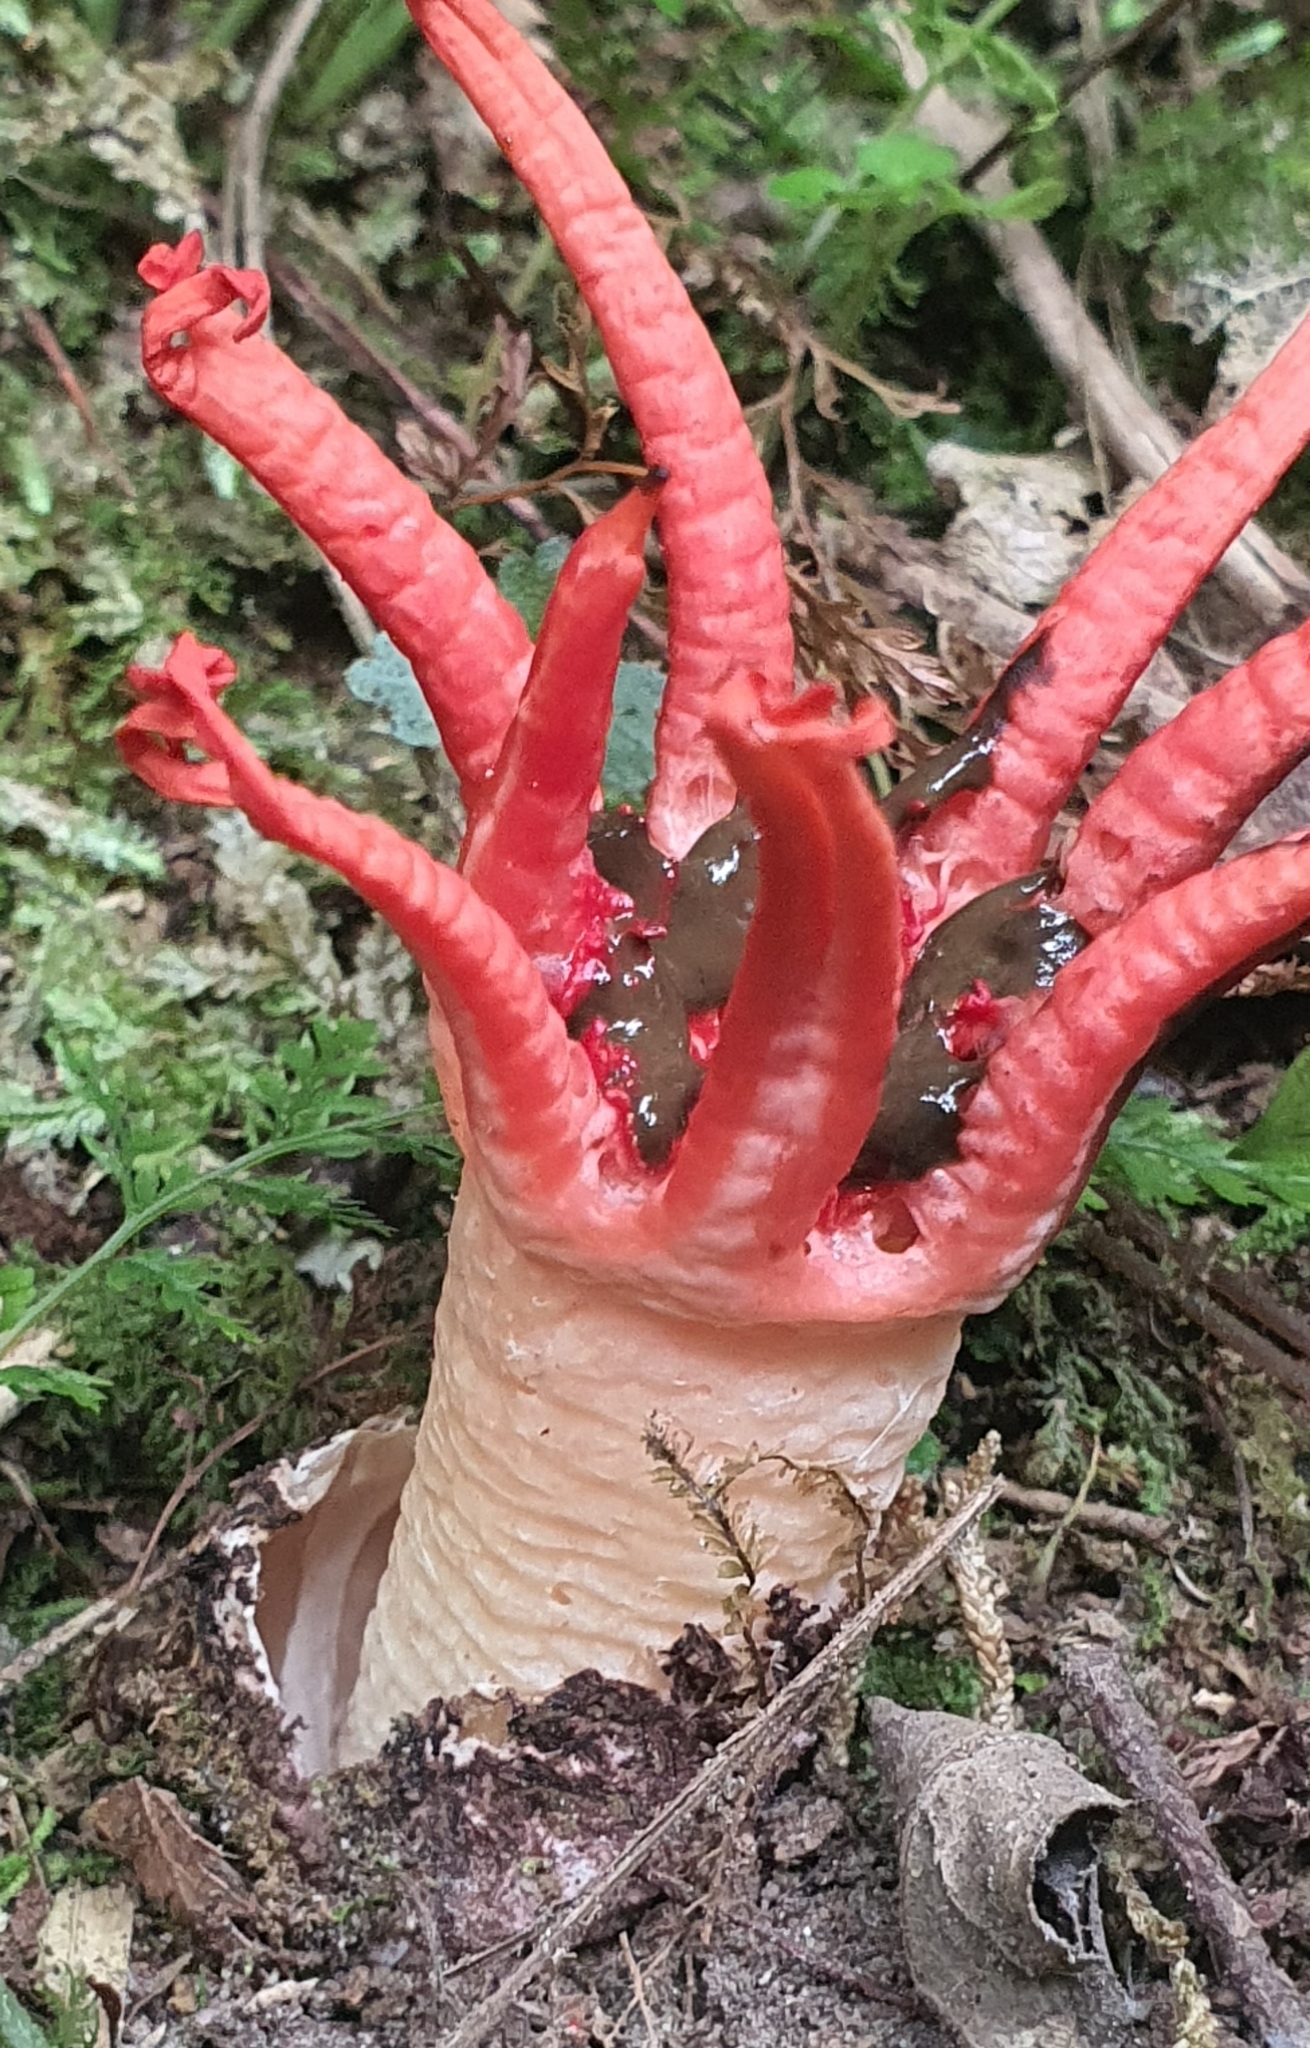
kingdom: Fungi
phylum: Basidiomycota
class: Agaricomycetes
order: Phallales
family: Phallaceae
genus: Aseroe
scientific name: Aseroe rubra
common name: Starfish fungus
